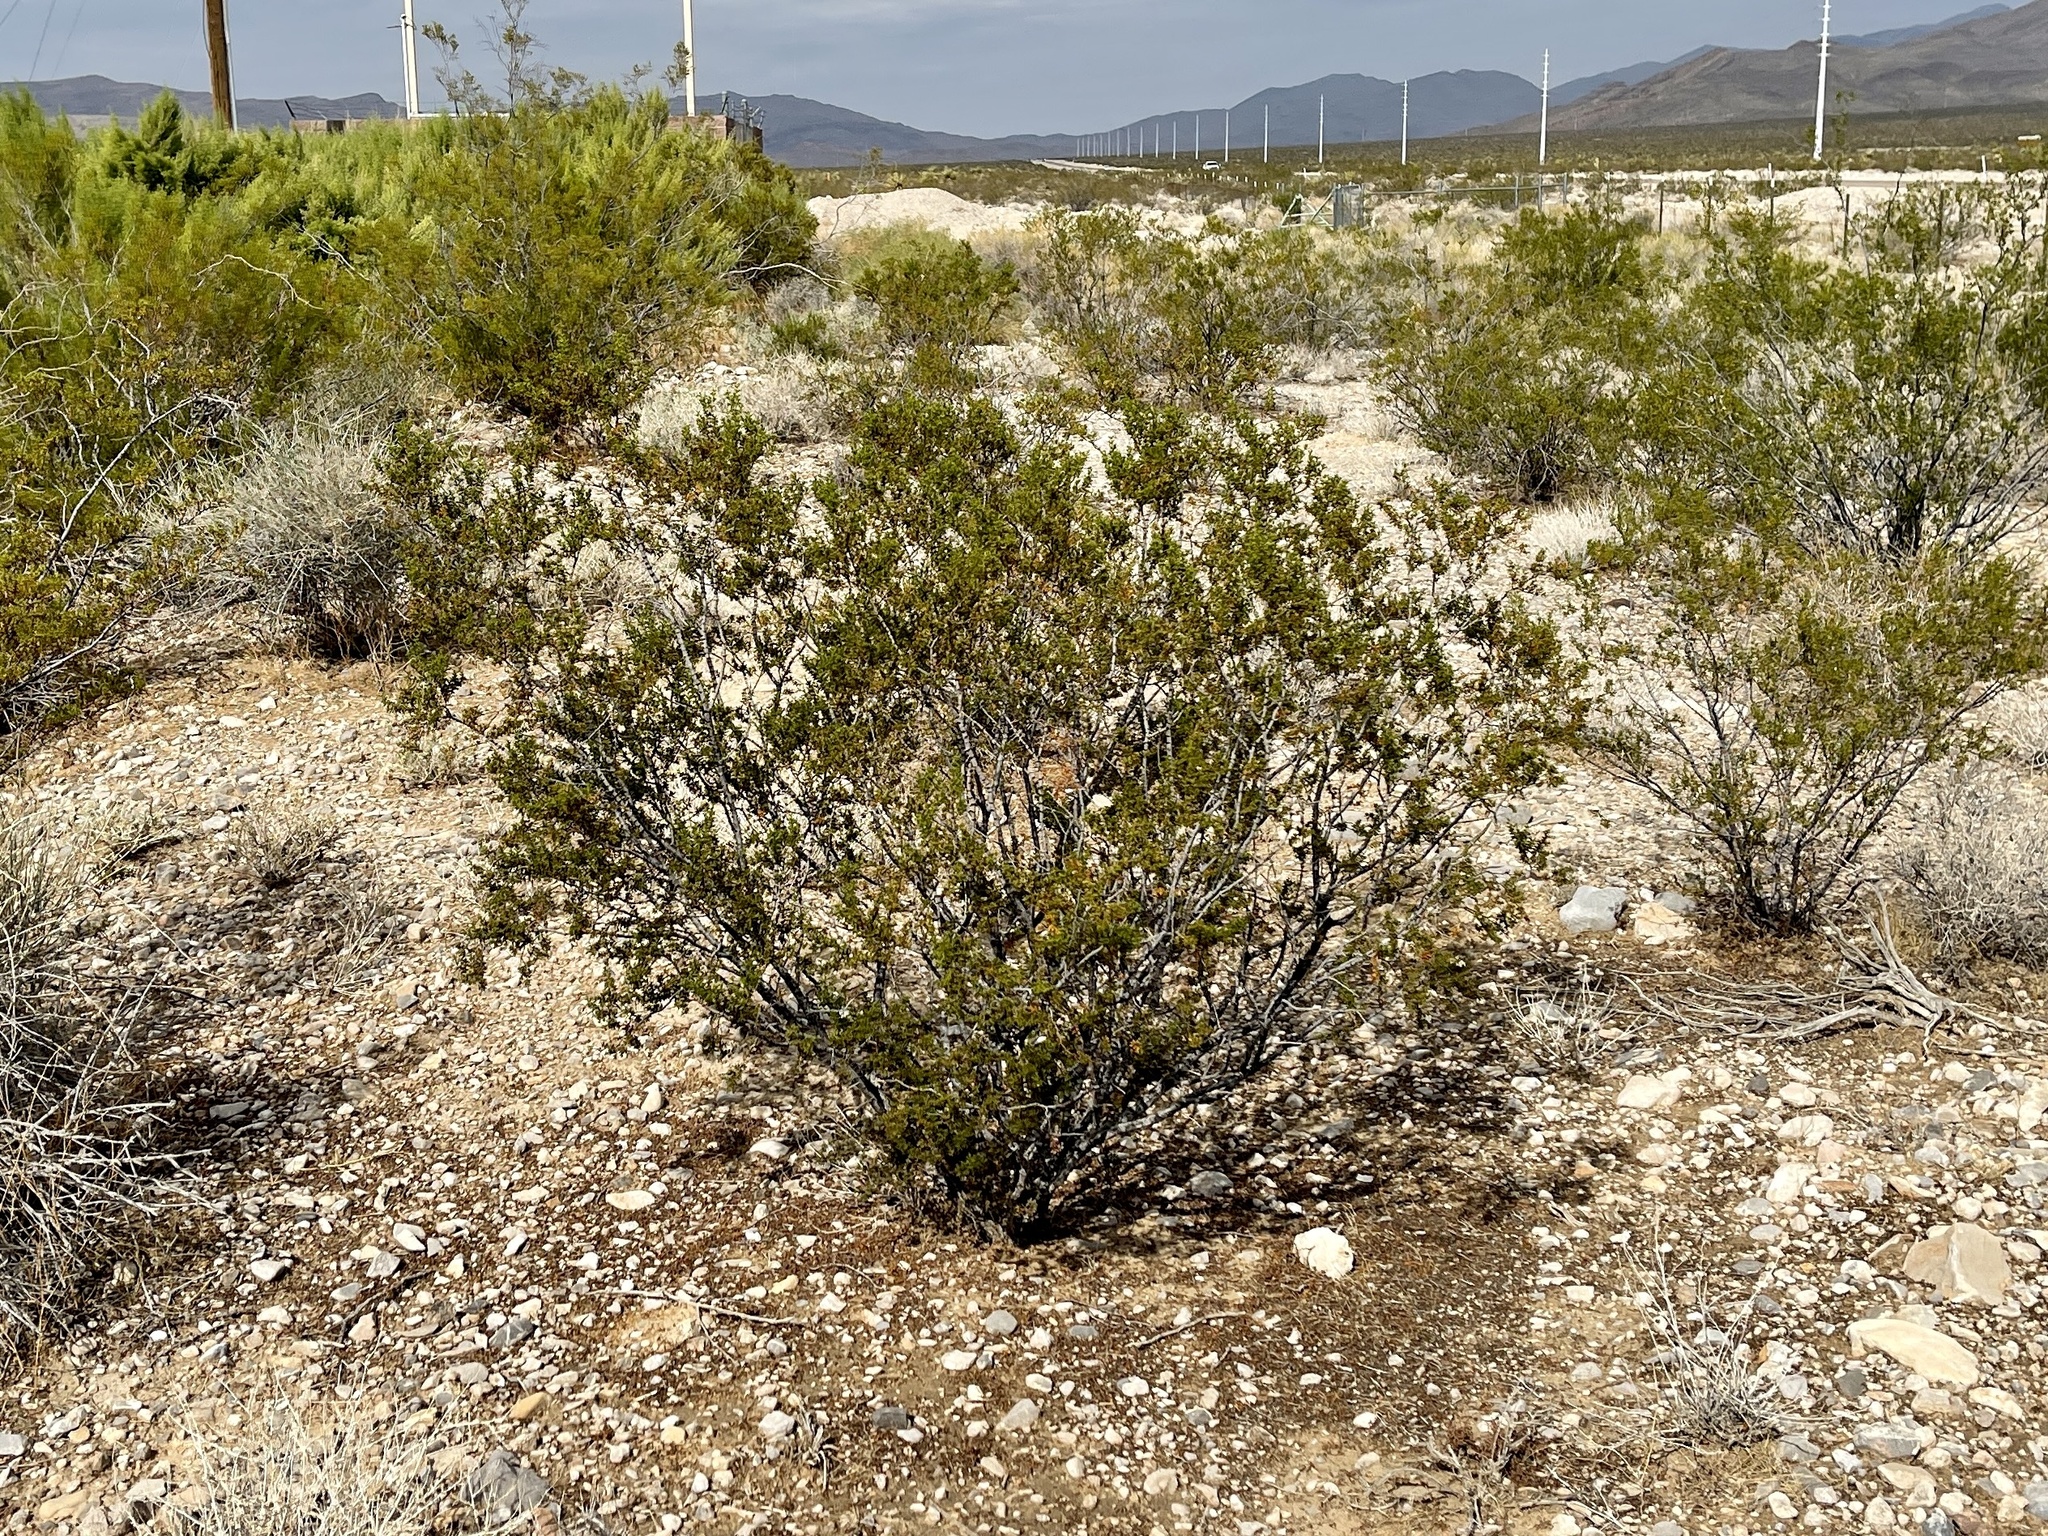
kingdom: Plantae
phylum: Tracheophyta
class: Magnoliopsida
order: Zygophyllales
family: Zygophyllaceae
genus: Larrea
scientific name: Larrea tridentata
